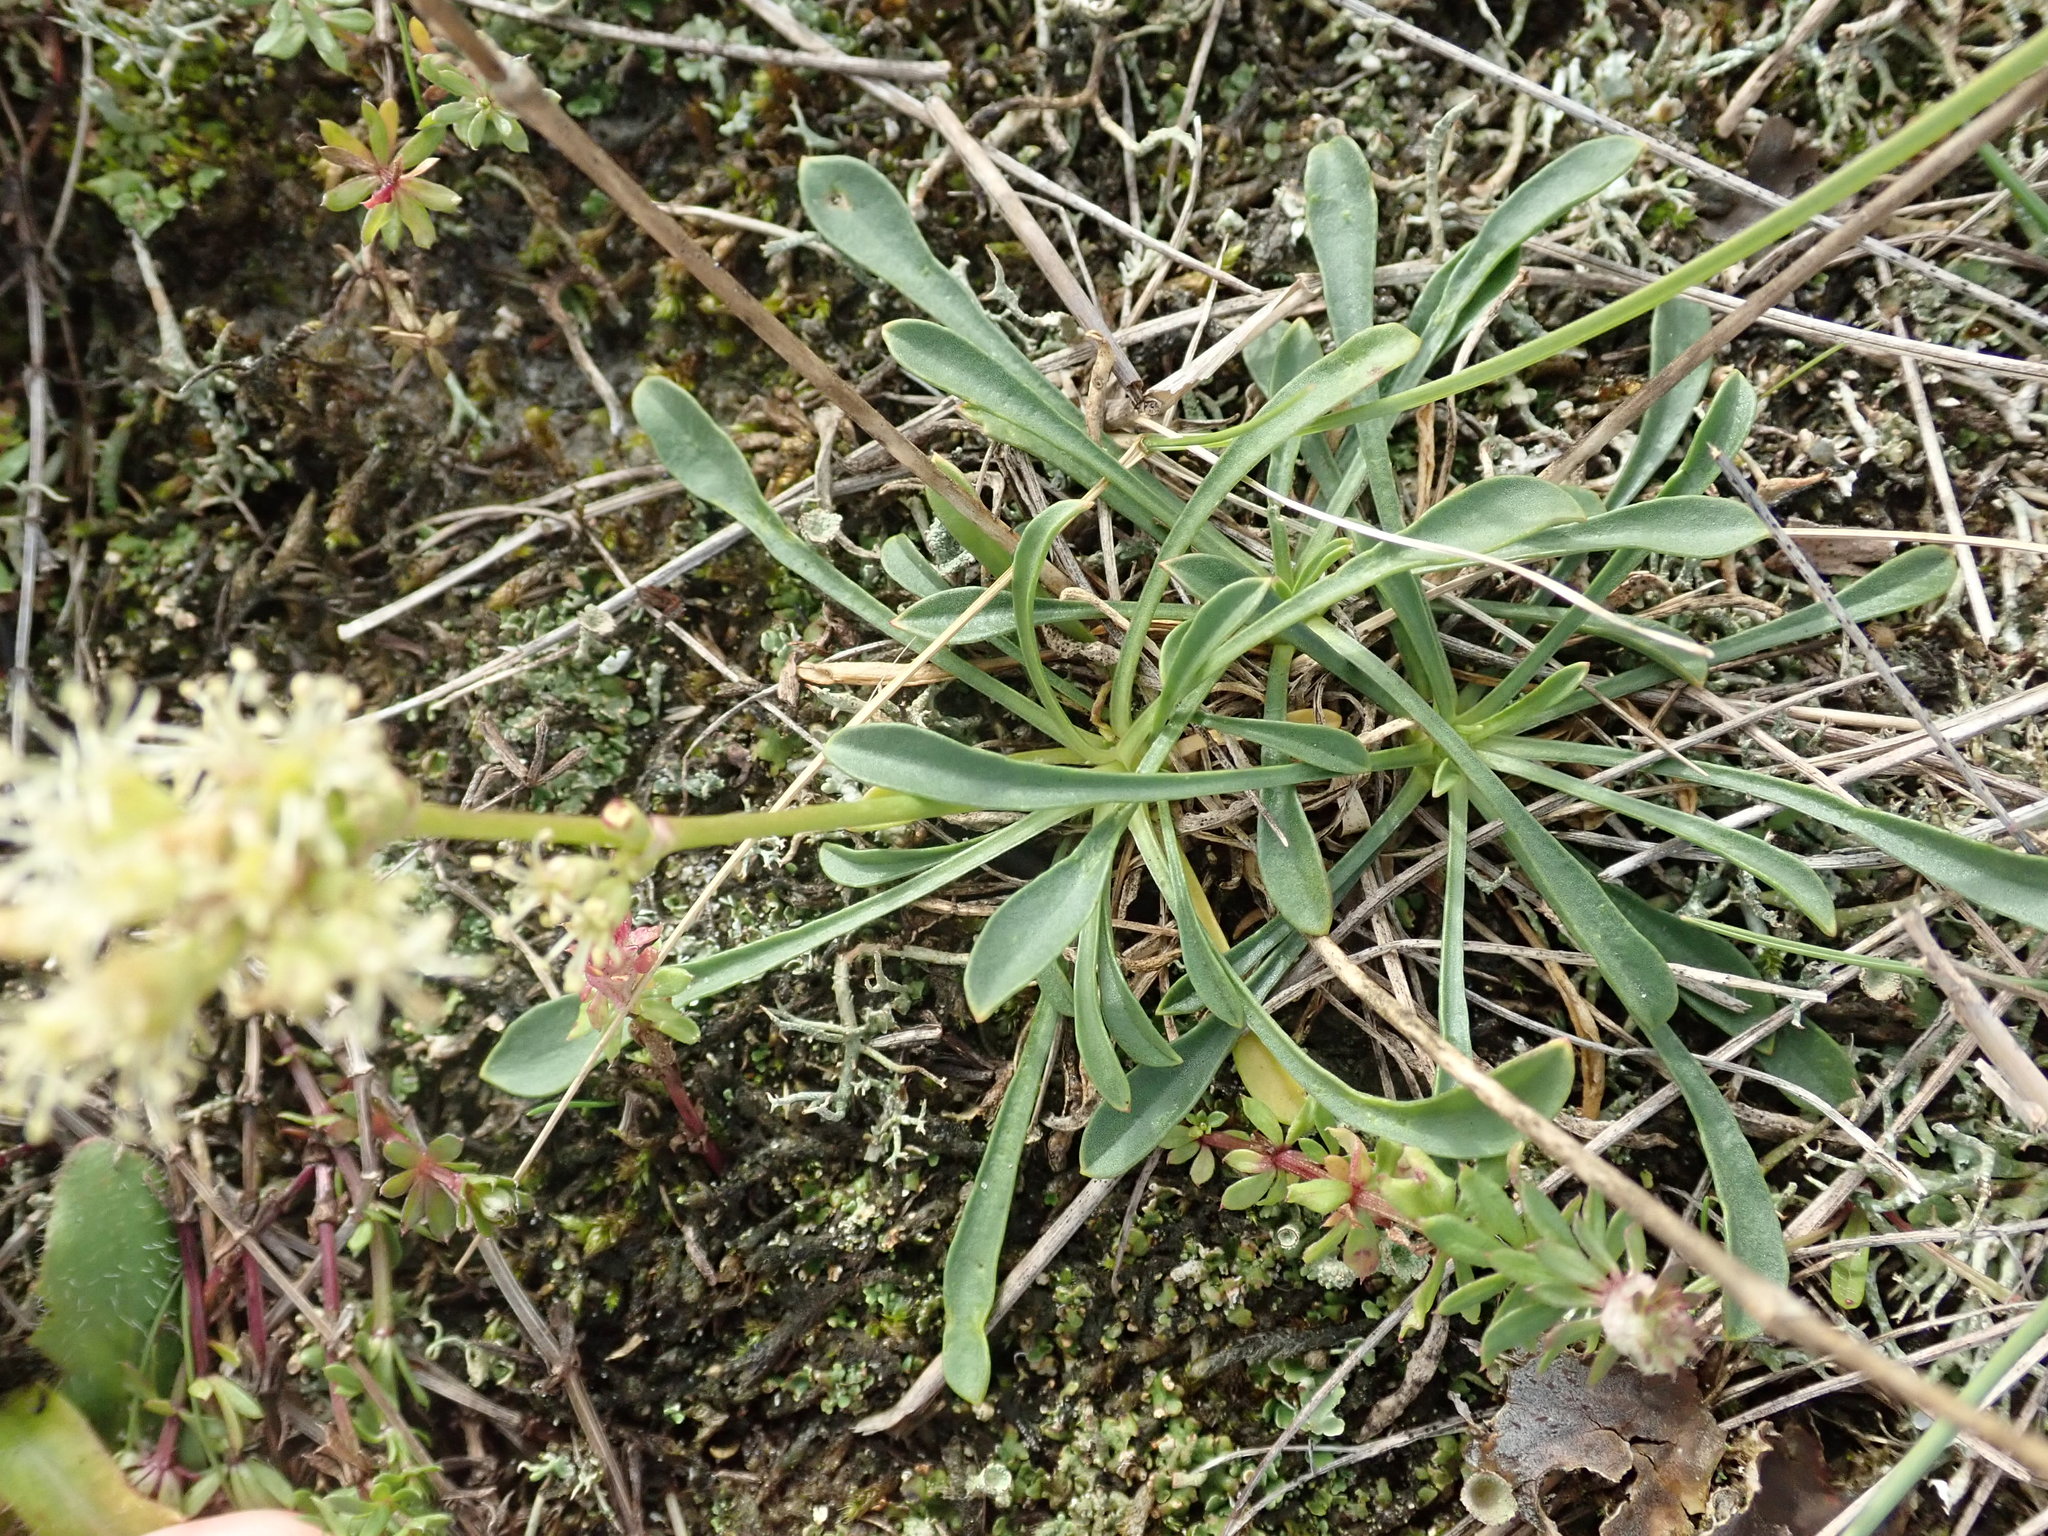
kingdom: Plantae
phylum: Tracheophyta
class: Magnoliopsida
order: Caryophyllales
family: Caryophyllaceae
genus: Silene
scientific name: Silene otites
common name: Spanish catchfly
